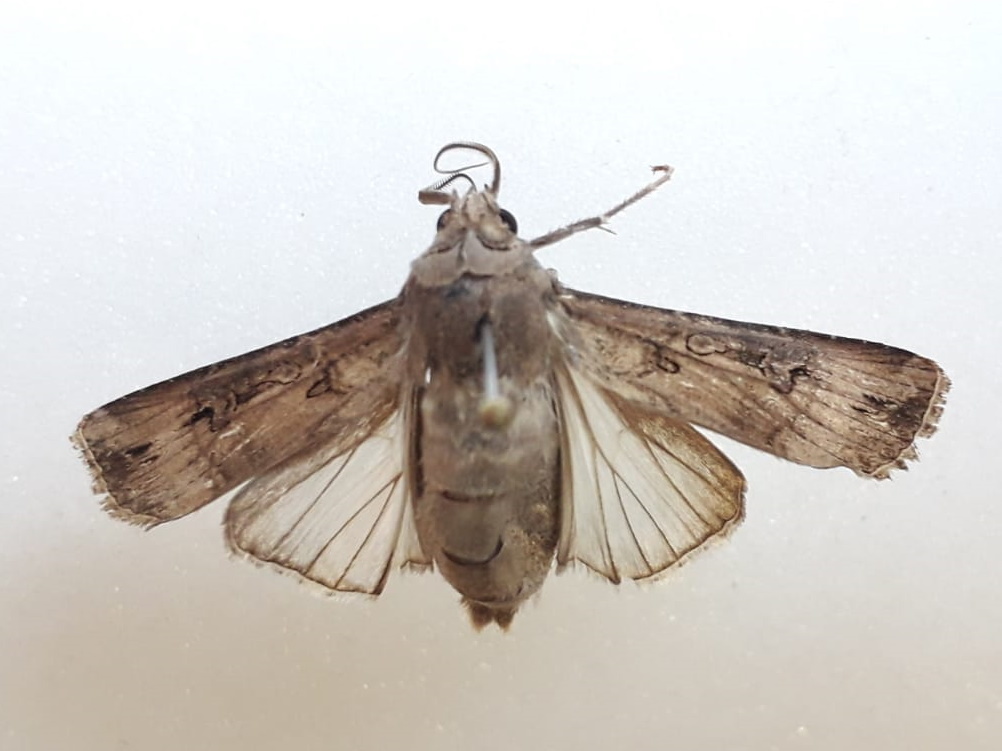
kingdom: Animalia
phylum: Arthropoda
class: Insecta
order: Lepidoptera
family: Noctuidae
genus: Agrotis
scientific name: Agrotis ipsilon
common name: Dark sword-grass
